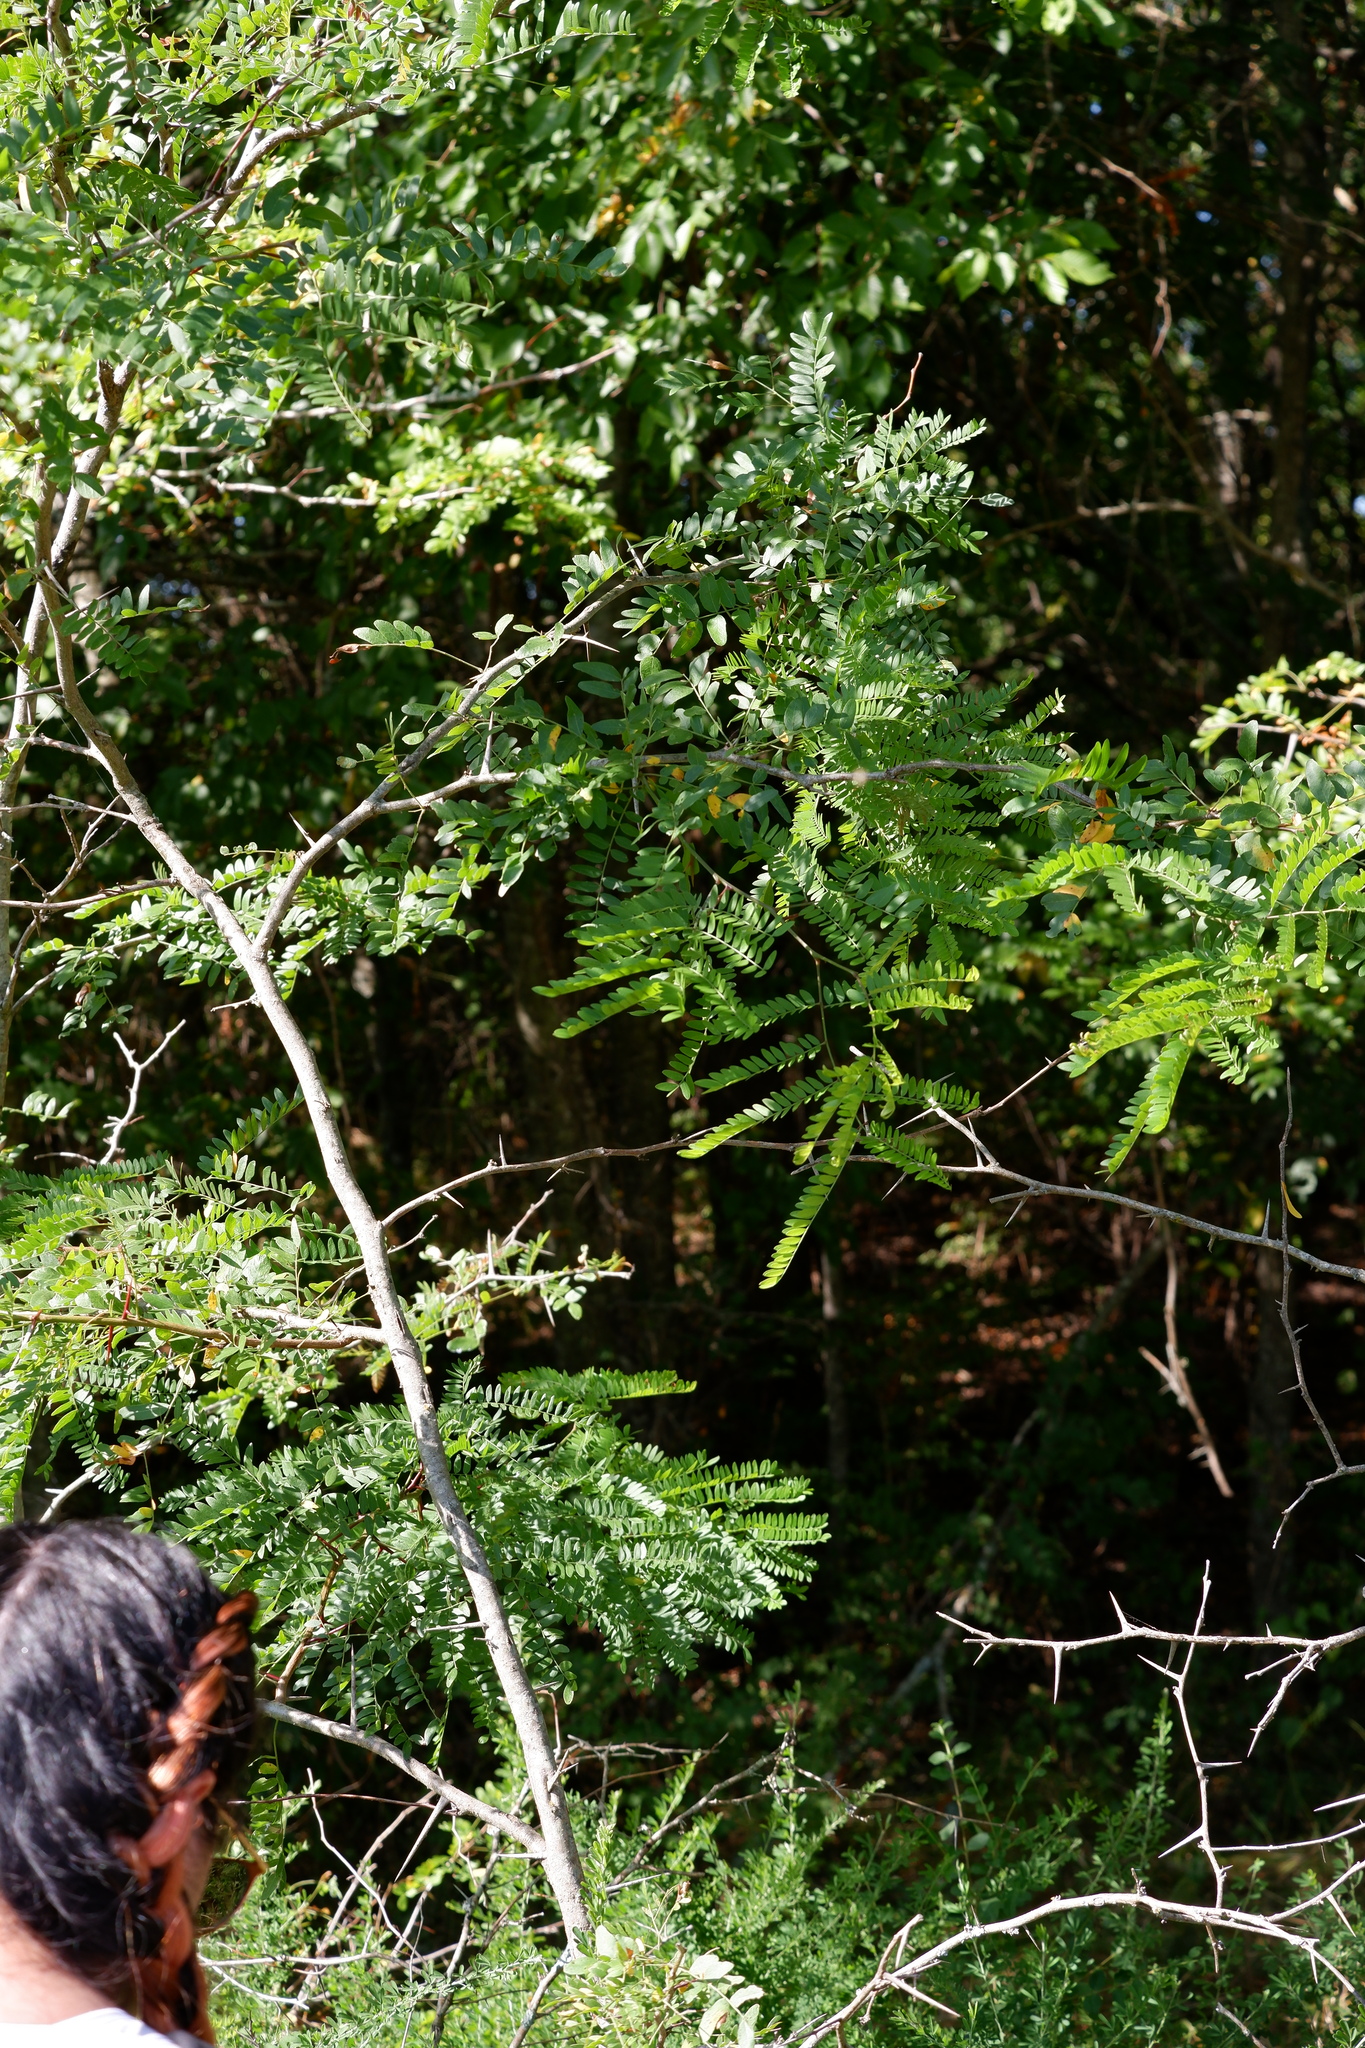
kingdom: Plantae
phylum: Tracheophyta
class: Magnoliopsida
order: Fabales
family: Fabaceae
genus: Gleditsia
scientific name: Gleditsia triacanthos
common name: Common honeylocust
